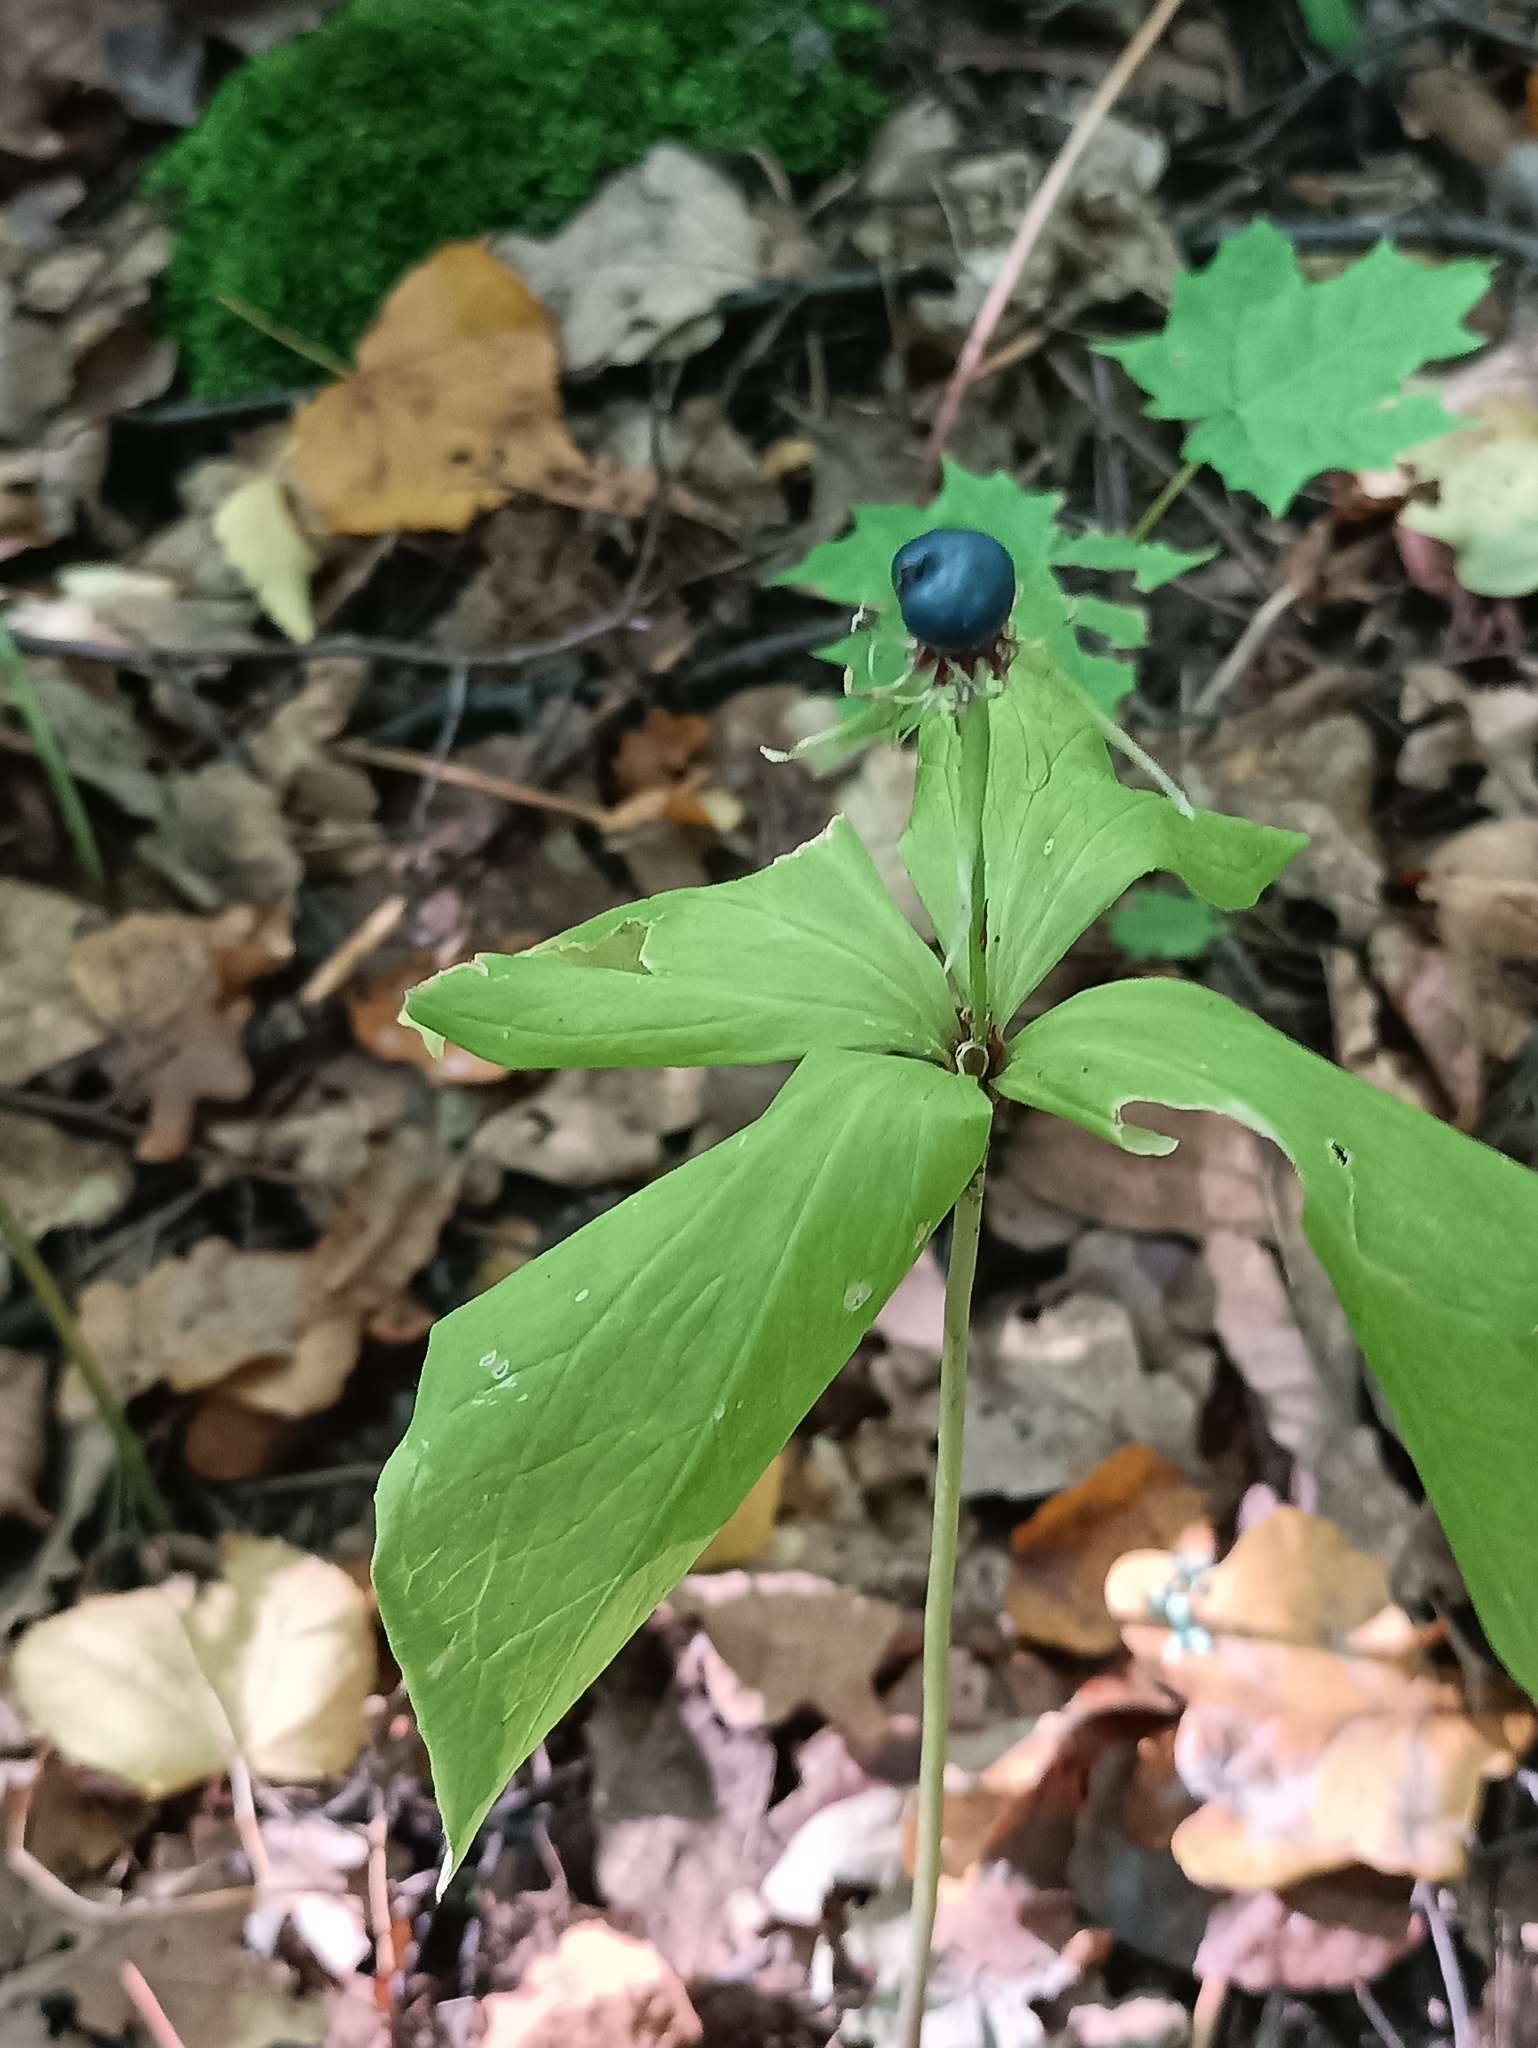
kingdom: Plantae
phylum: Tracheophyta
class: Liliopsida
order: Liliales
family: Melanthiaceae
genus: Paris
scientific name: Paris quadrifolia
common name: Herb-paris
